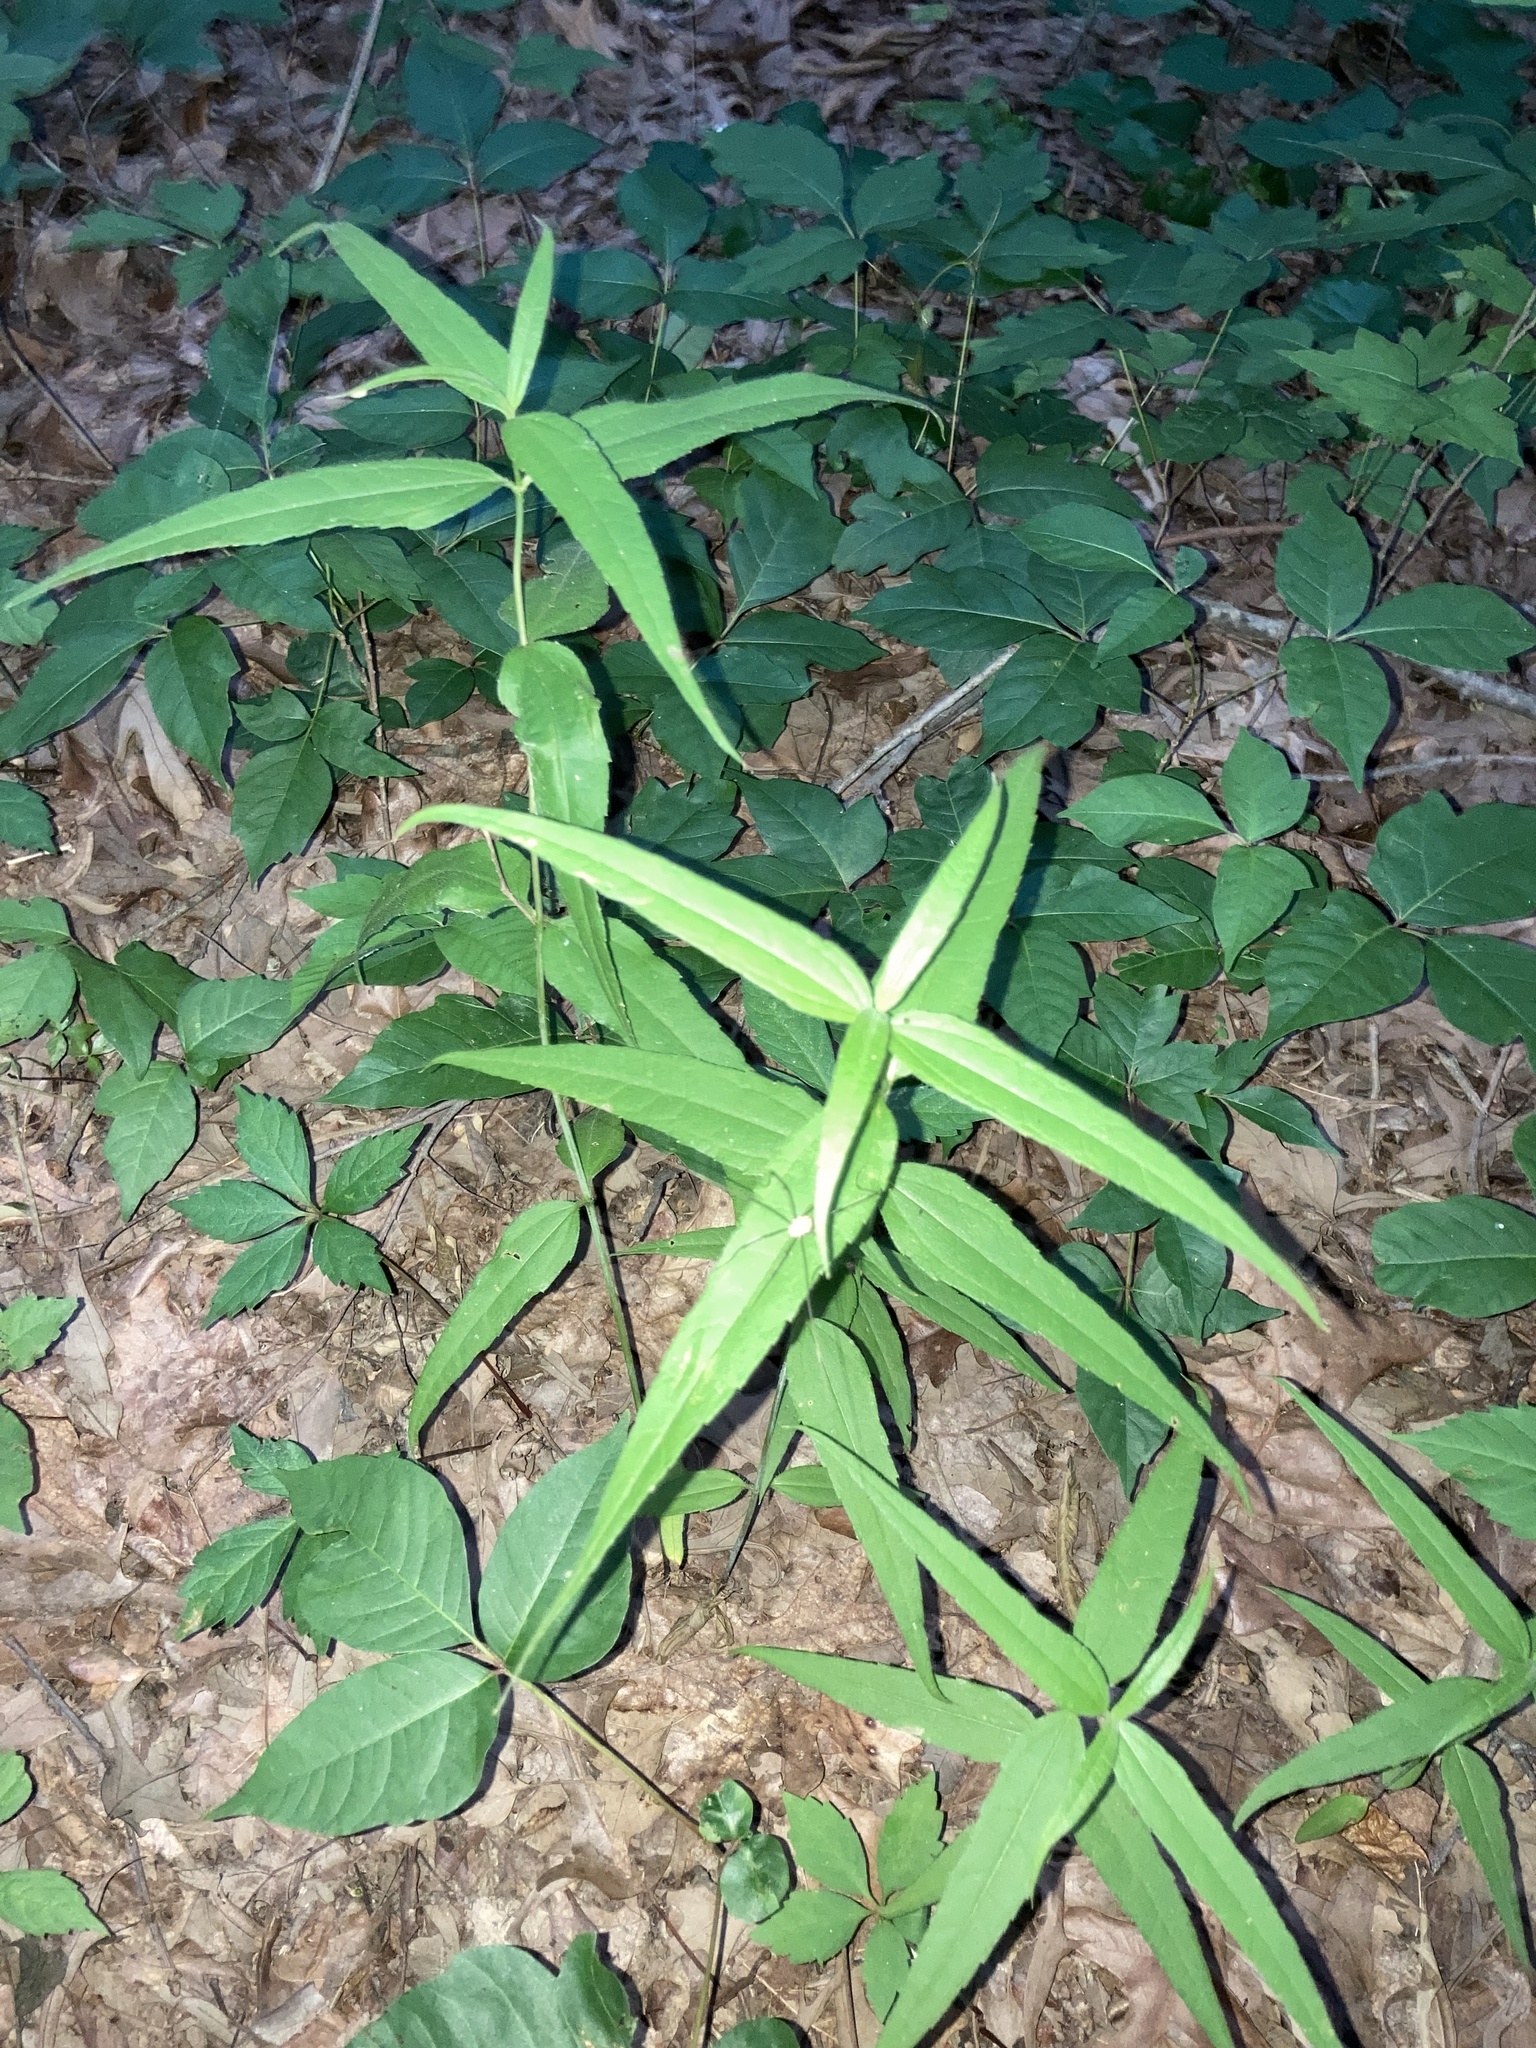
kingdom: Plantae
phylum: Tracheophyta
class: Magnoliopsida
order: Asterales
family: Asteraceae
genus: Helianthus
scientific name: Helianthus divaricatus
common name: Divergent sunflower
